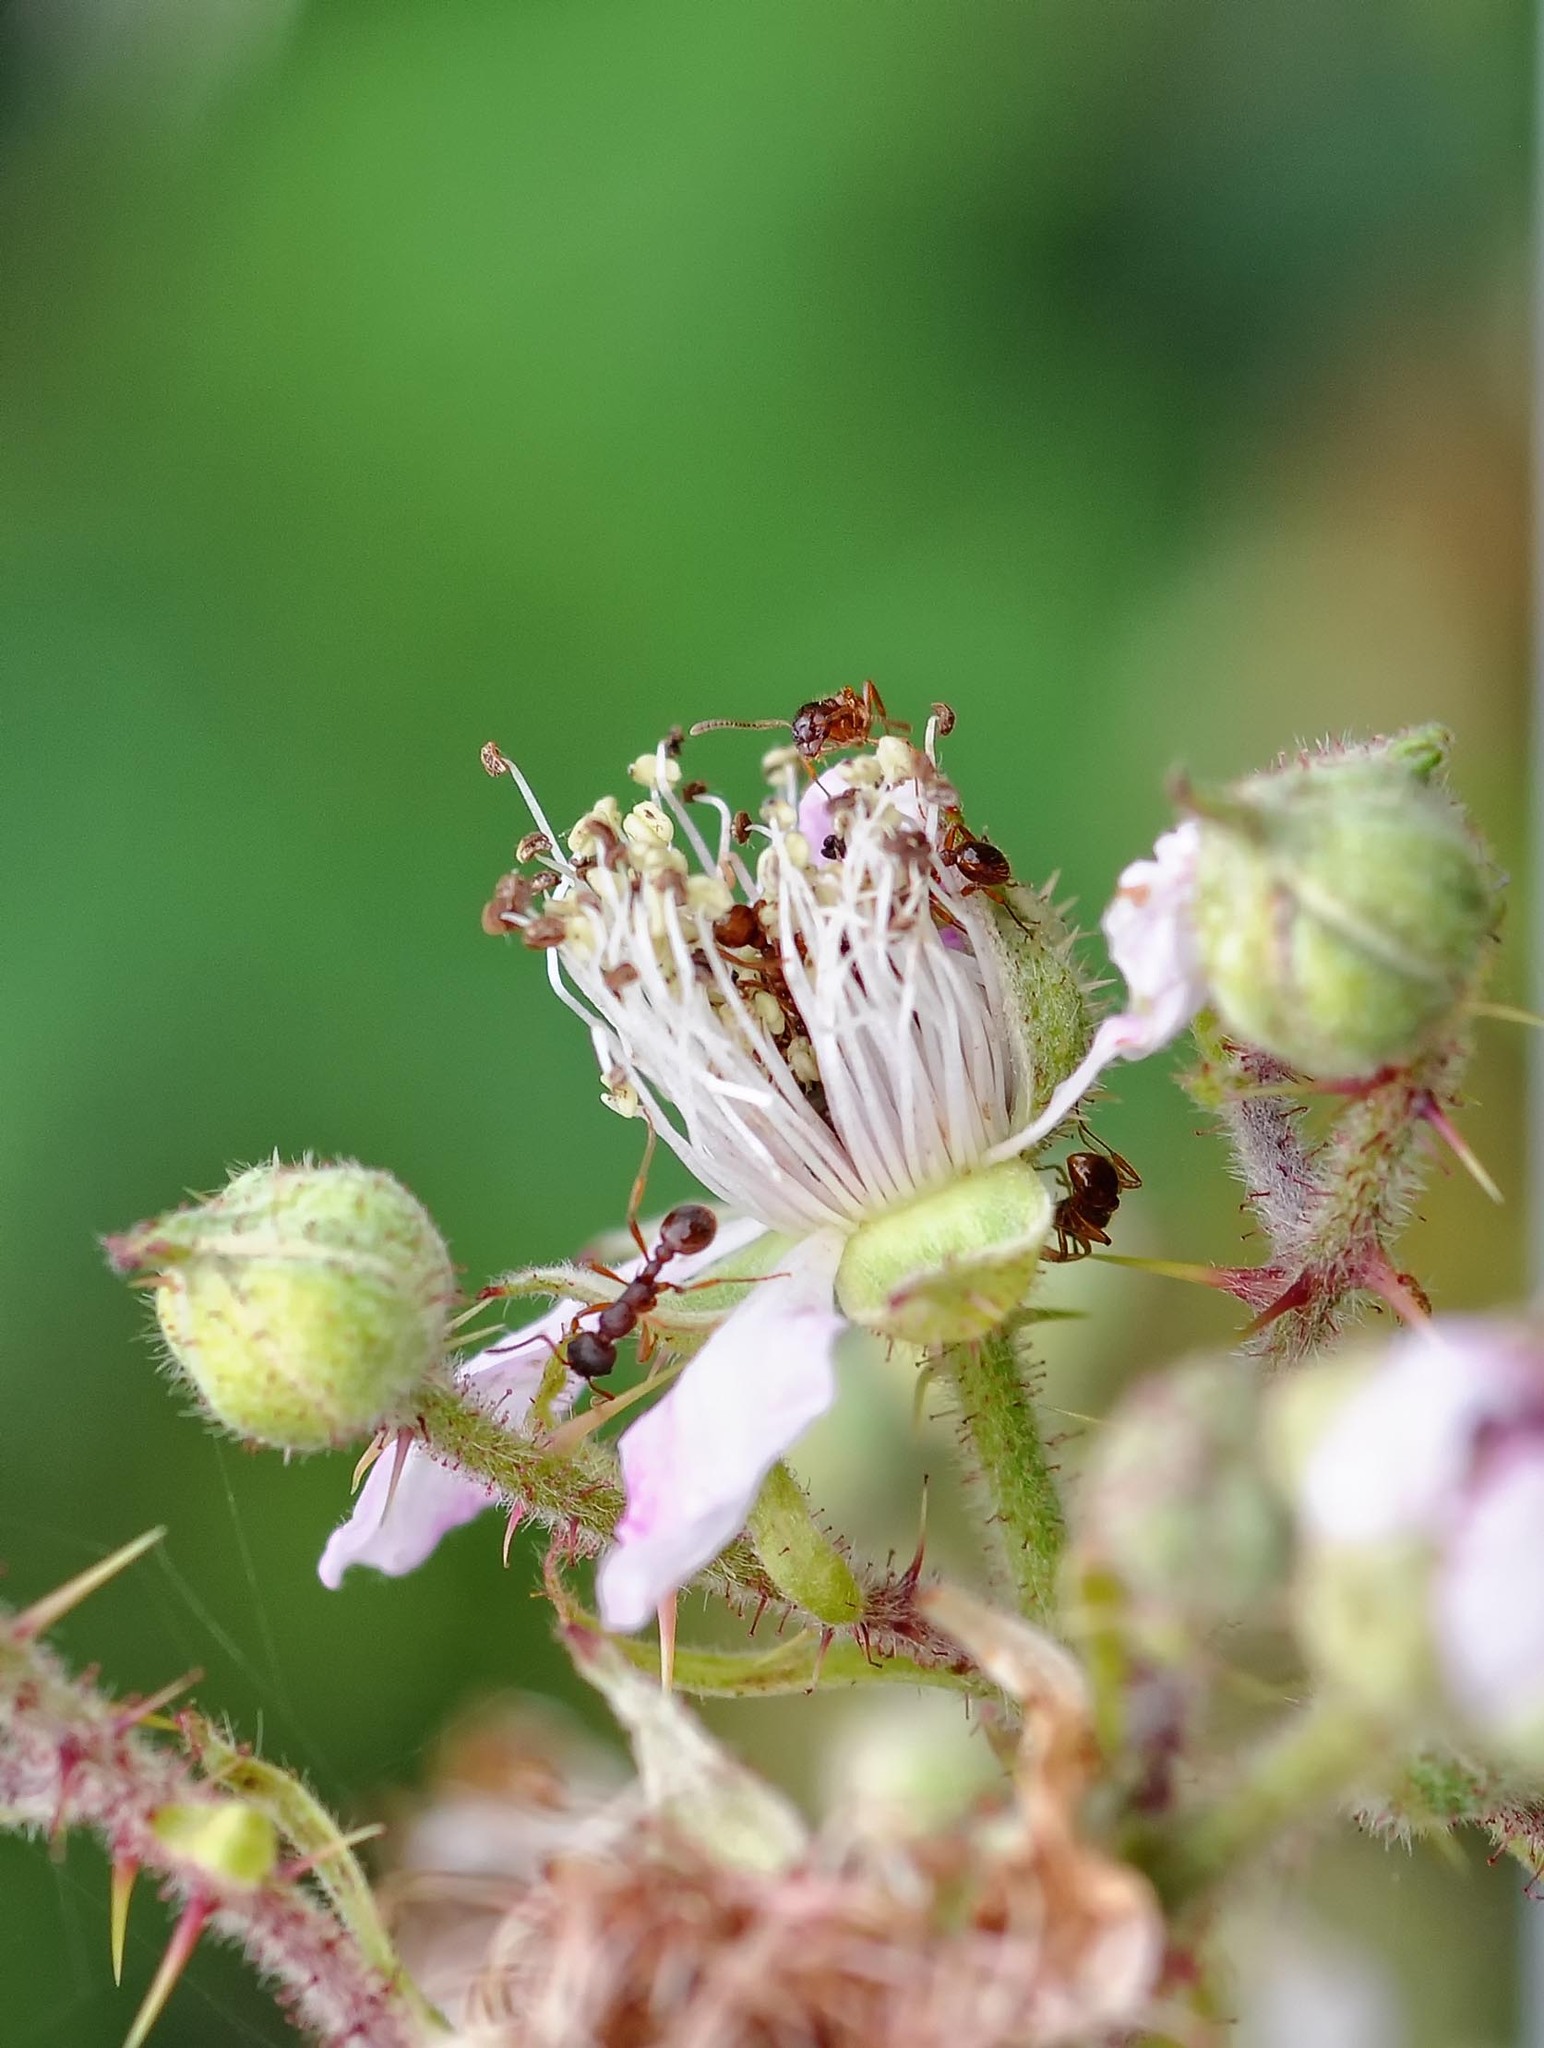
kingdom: Animalia
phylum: Arthropoda
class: Insecta
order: Hymenoptera
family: Formicidae
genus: Myrmica
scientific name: Myrmica ruginodis
